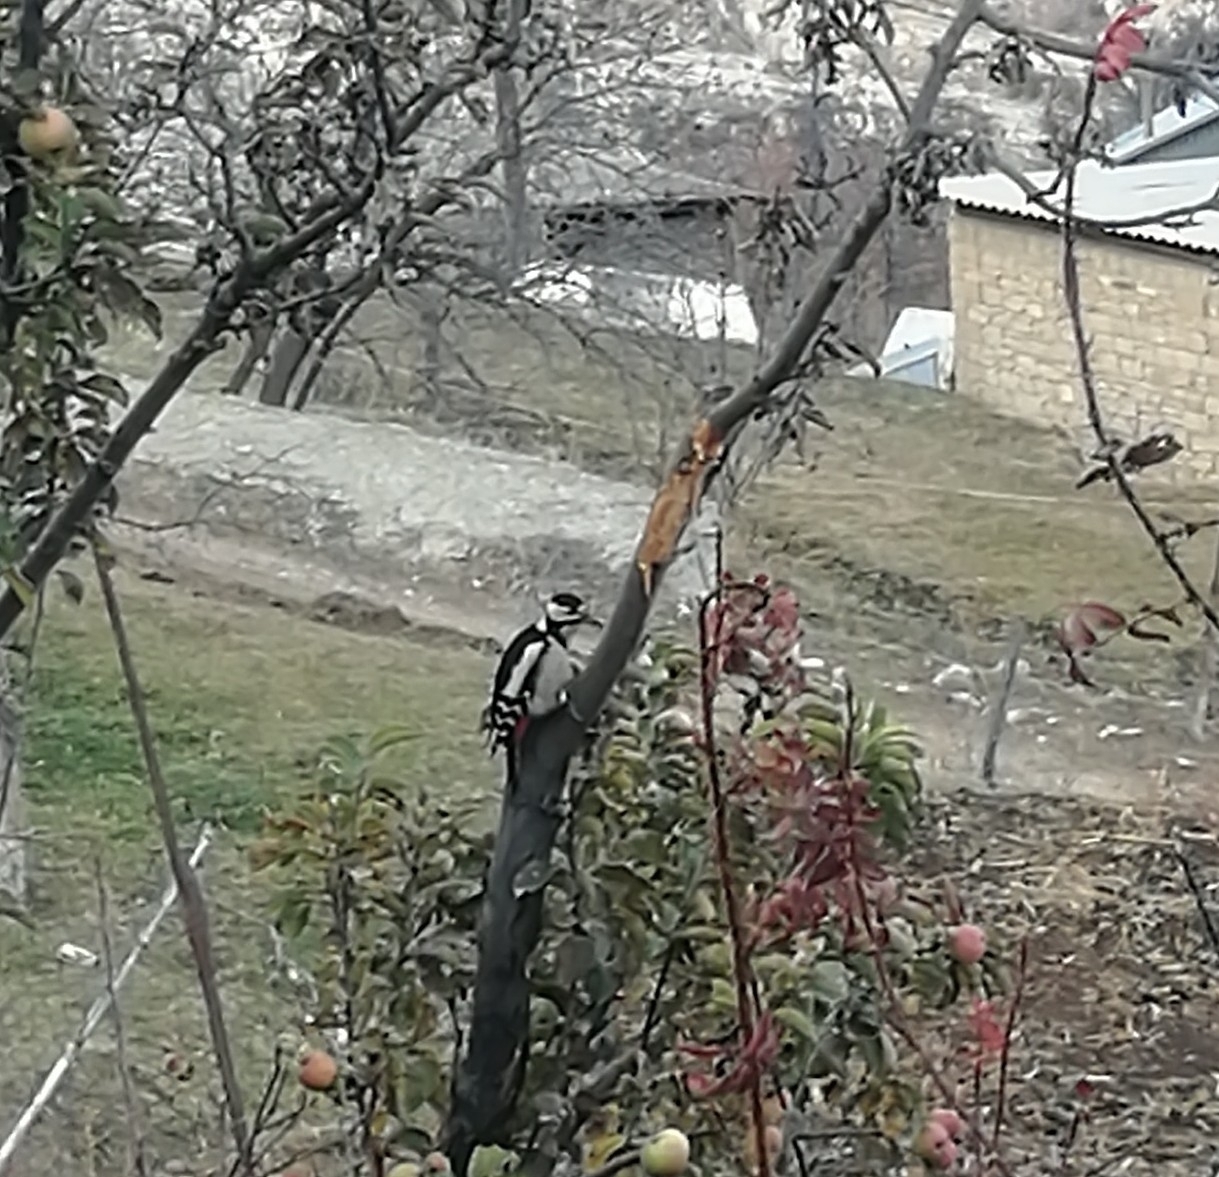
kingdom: Animalia
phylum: Chordata
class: Aves
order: Piciformes
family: Picidae
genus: Dendrocopos
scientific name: Dendrocopos major
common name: Great spotted woodpecker
